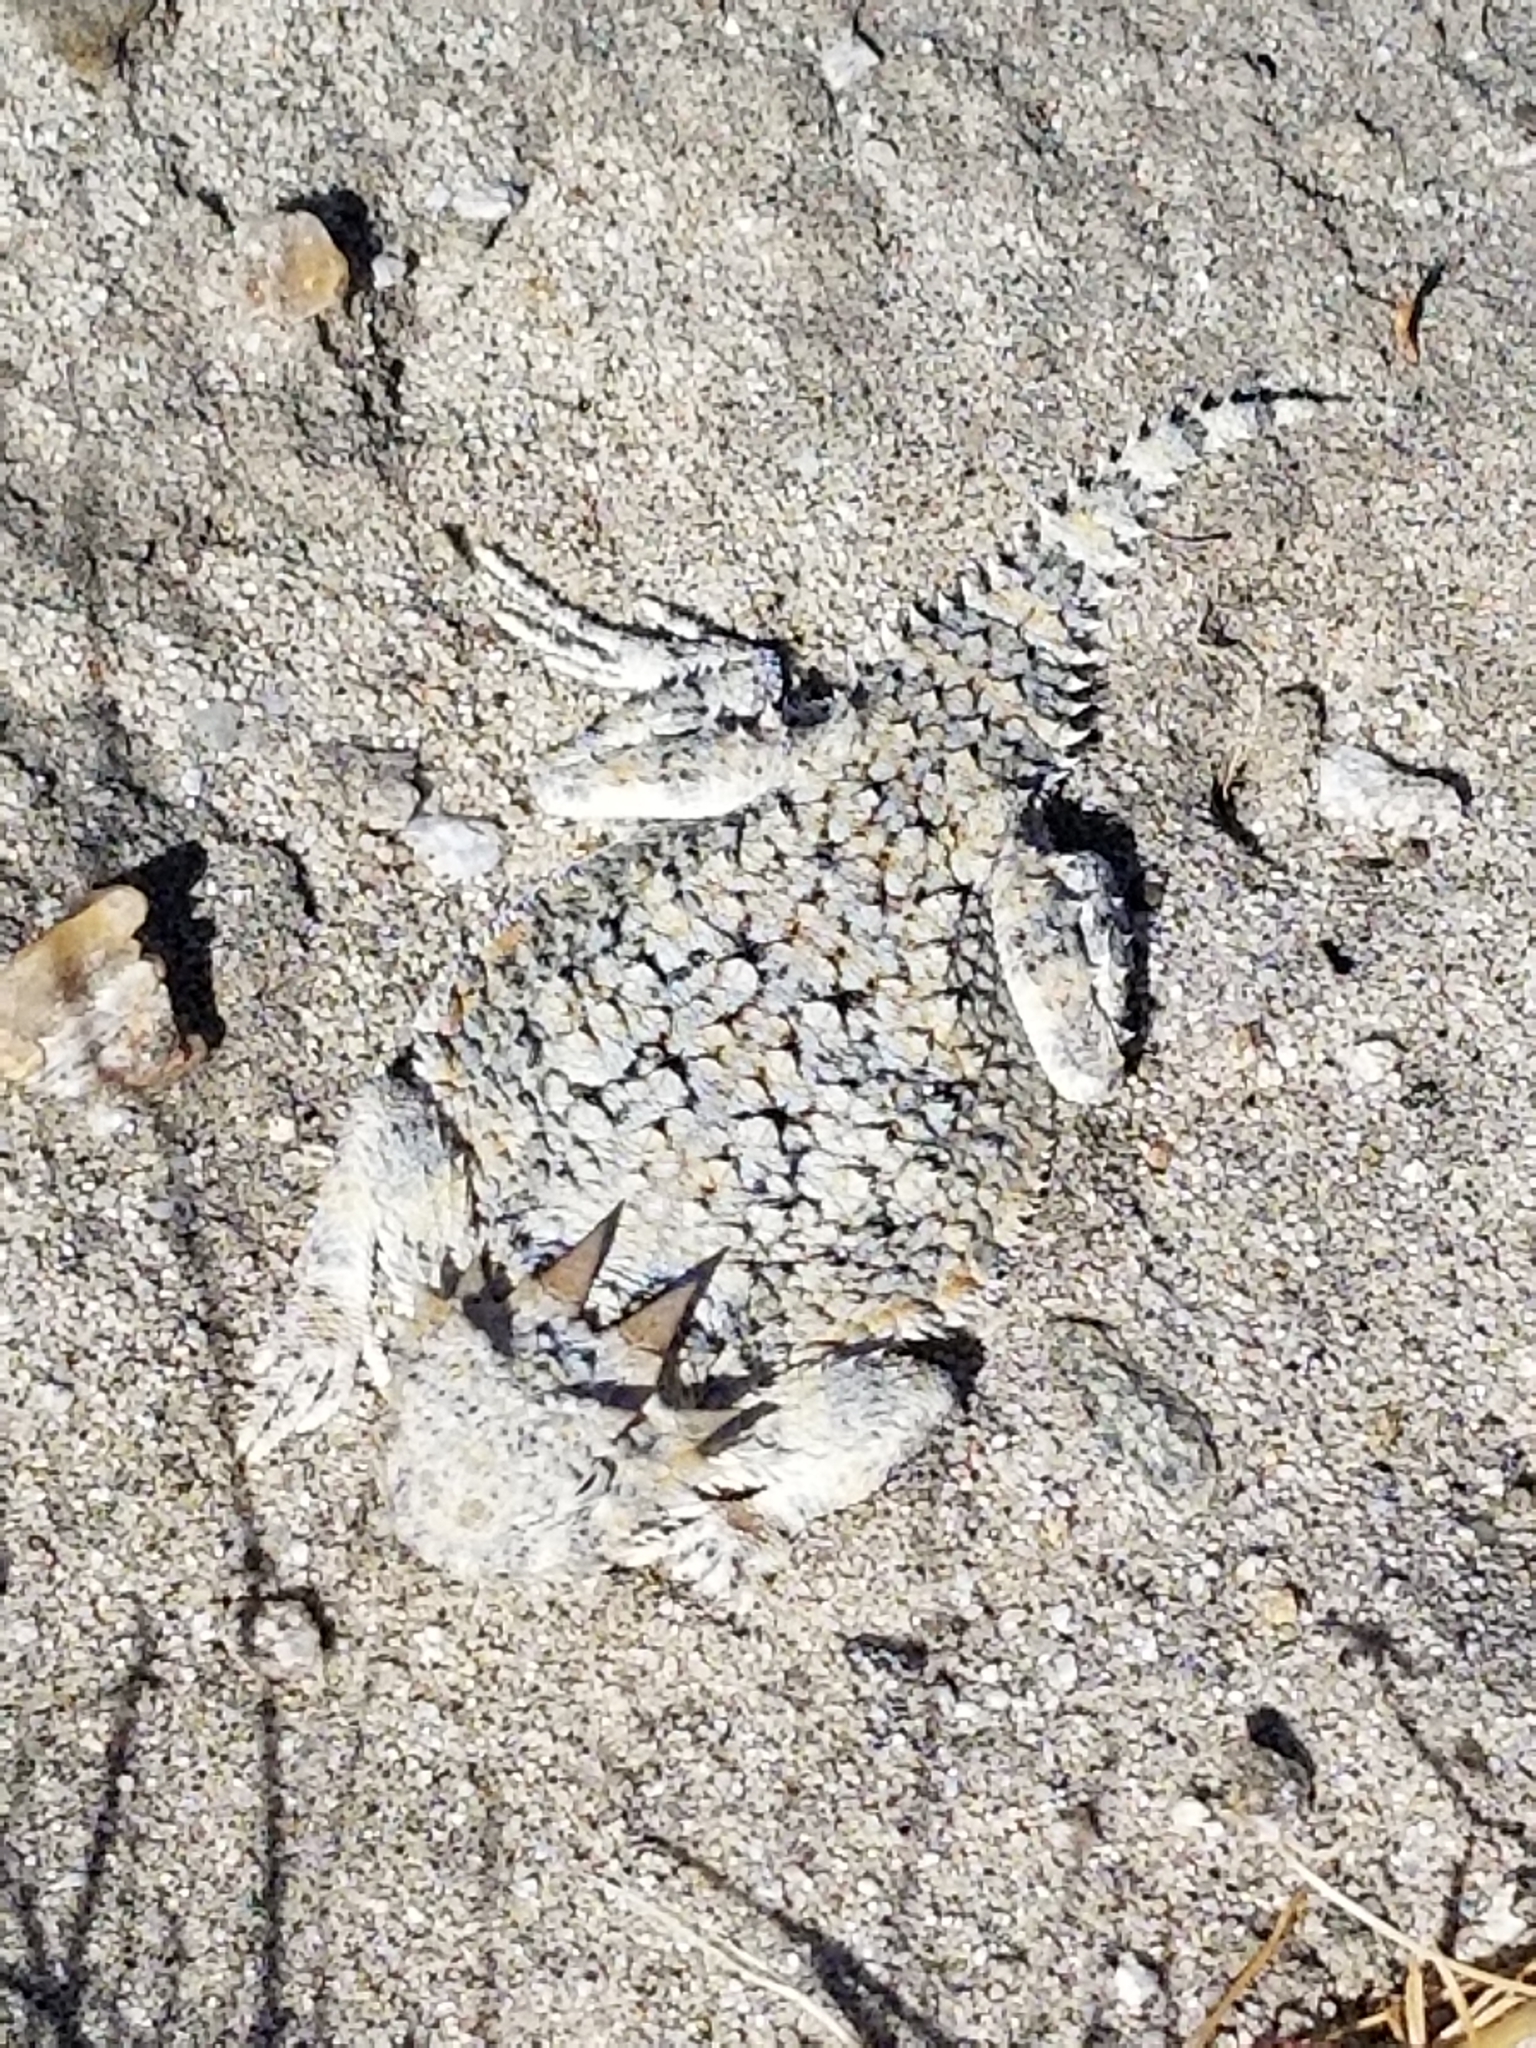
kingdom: Animalia
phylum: Chordata
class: Squamata
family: Phrynosomatidae
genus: Phrynosoma
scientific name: Phrynosoma platyrhinos
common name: Desert horned lizard
